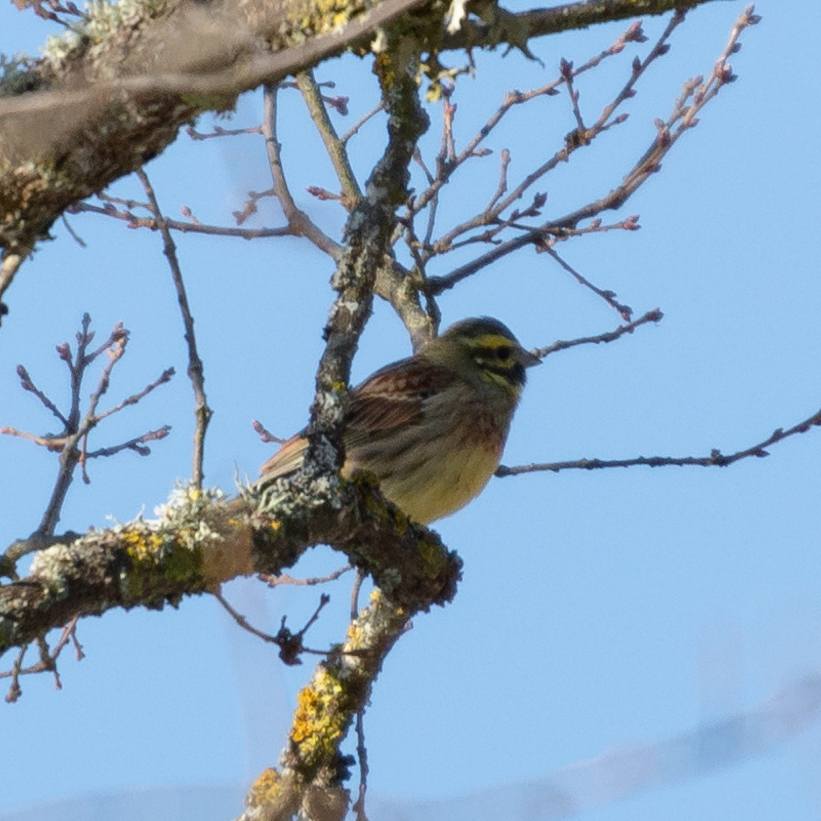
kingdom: Animalia
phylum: Chordata
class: Aves
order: Passeriformes
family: Emberizidae
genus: Emberiza
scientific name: Emberiza cirlus
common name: Cirl bunting
